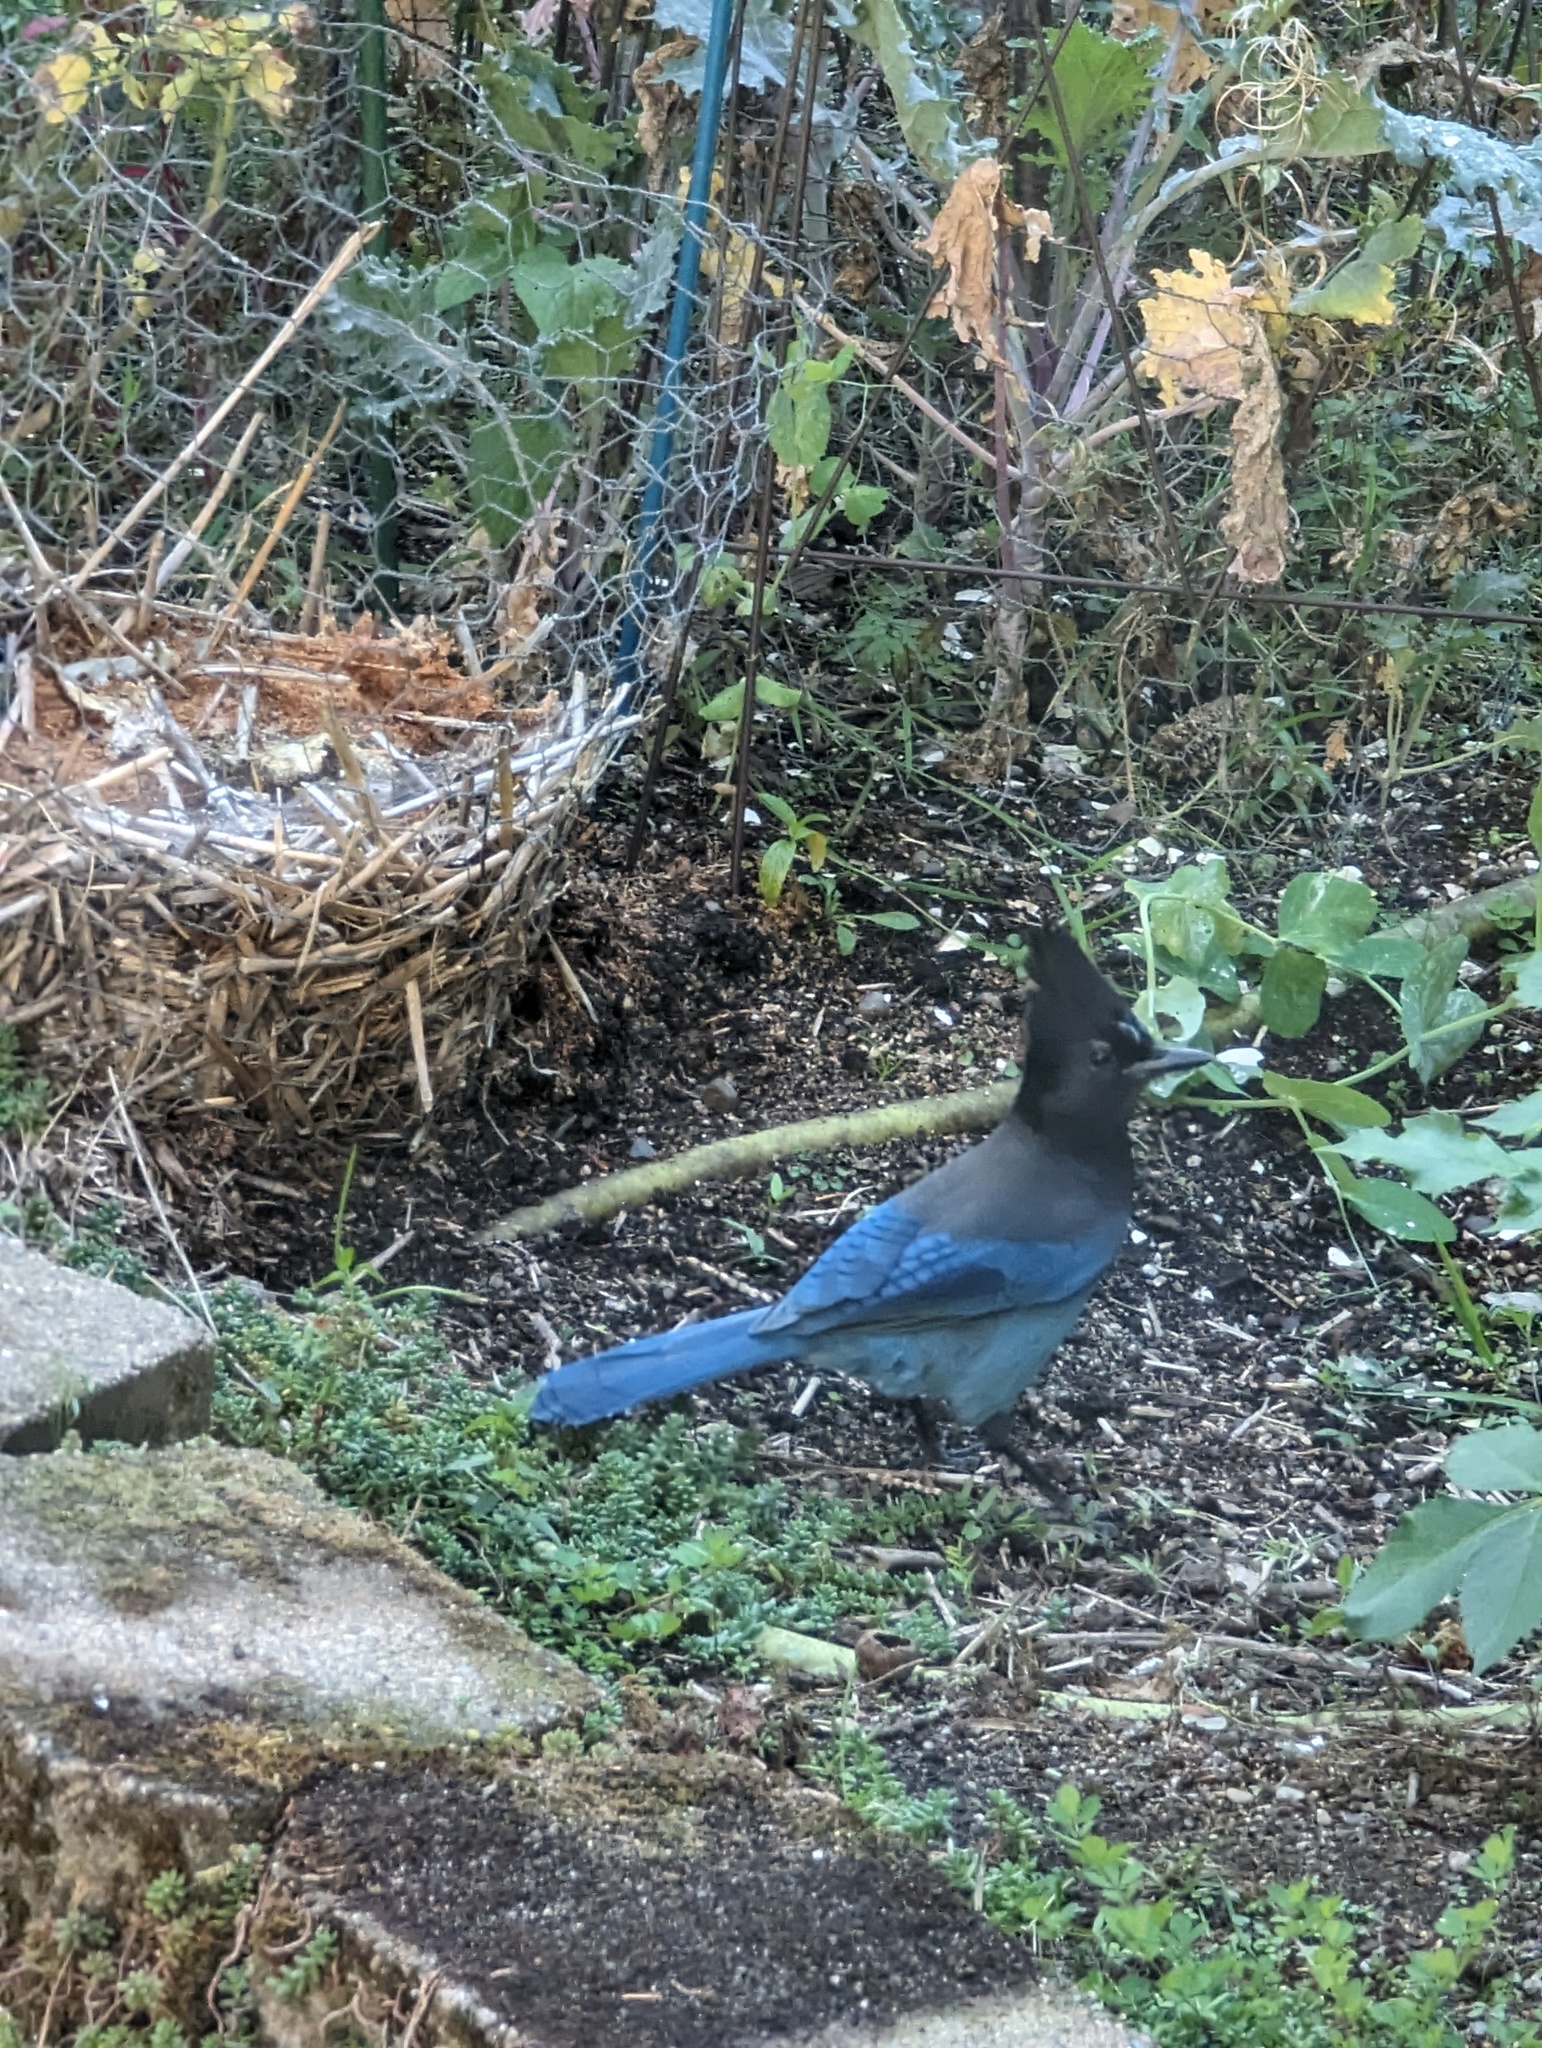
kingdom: Animalia
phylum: Chordata
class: Aves
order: Passeriformes
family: Corvidae
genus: Cyanocitta
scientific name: Cyanocitta stelleri
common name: Steller's jay
